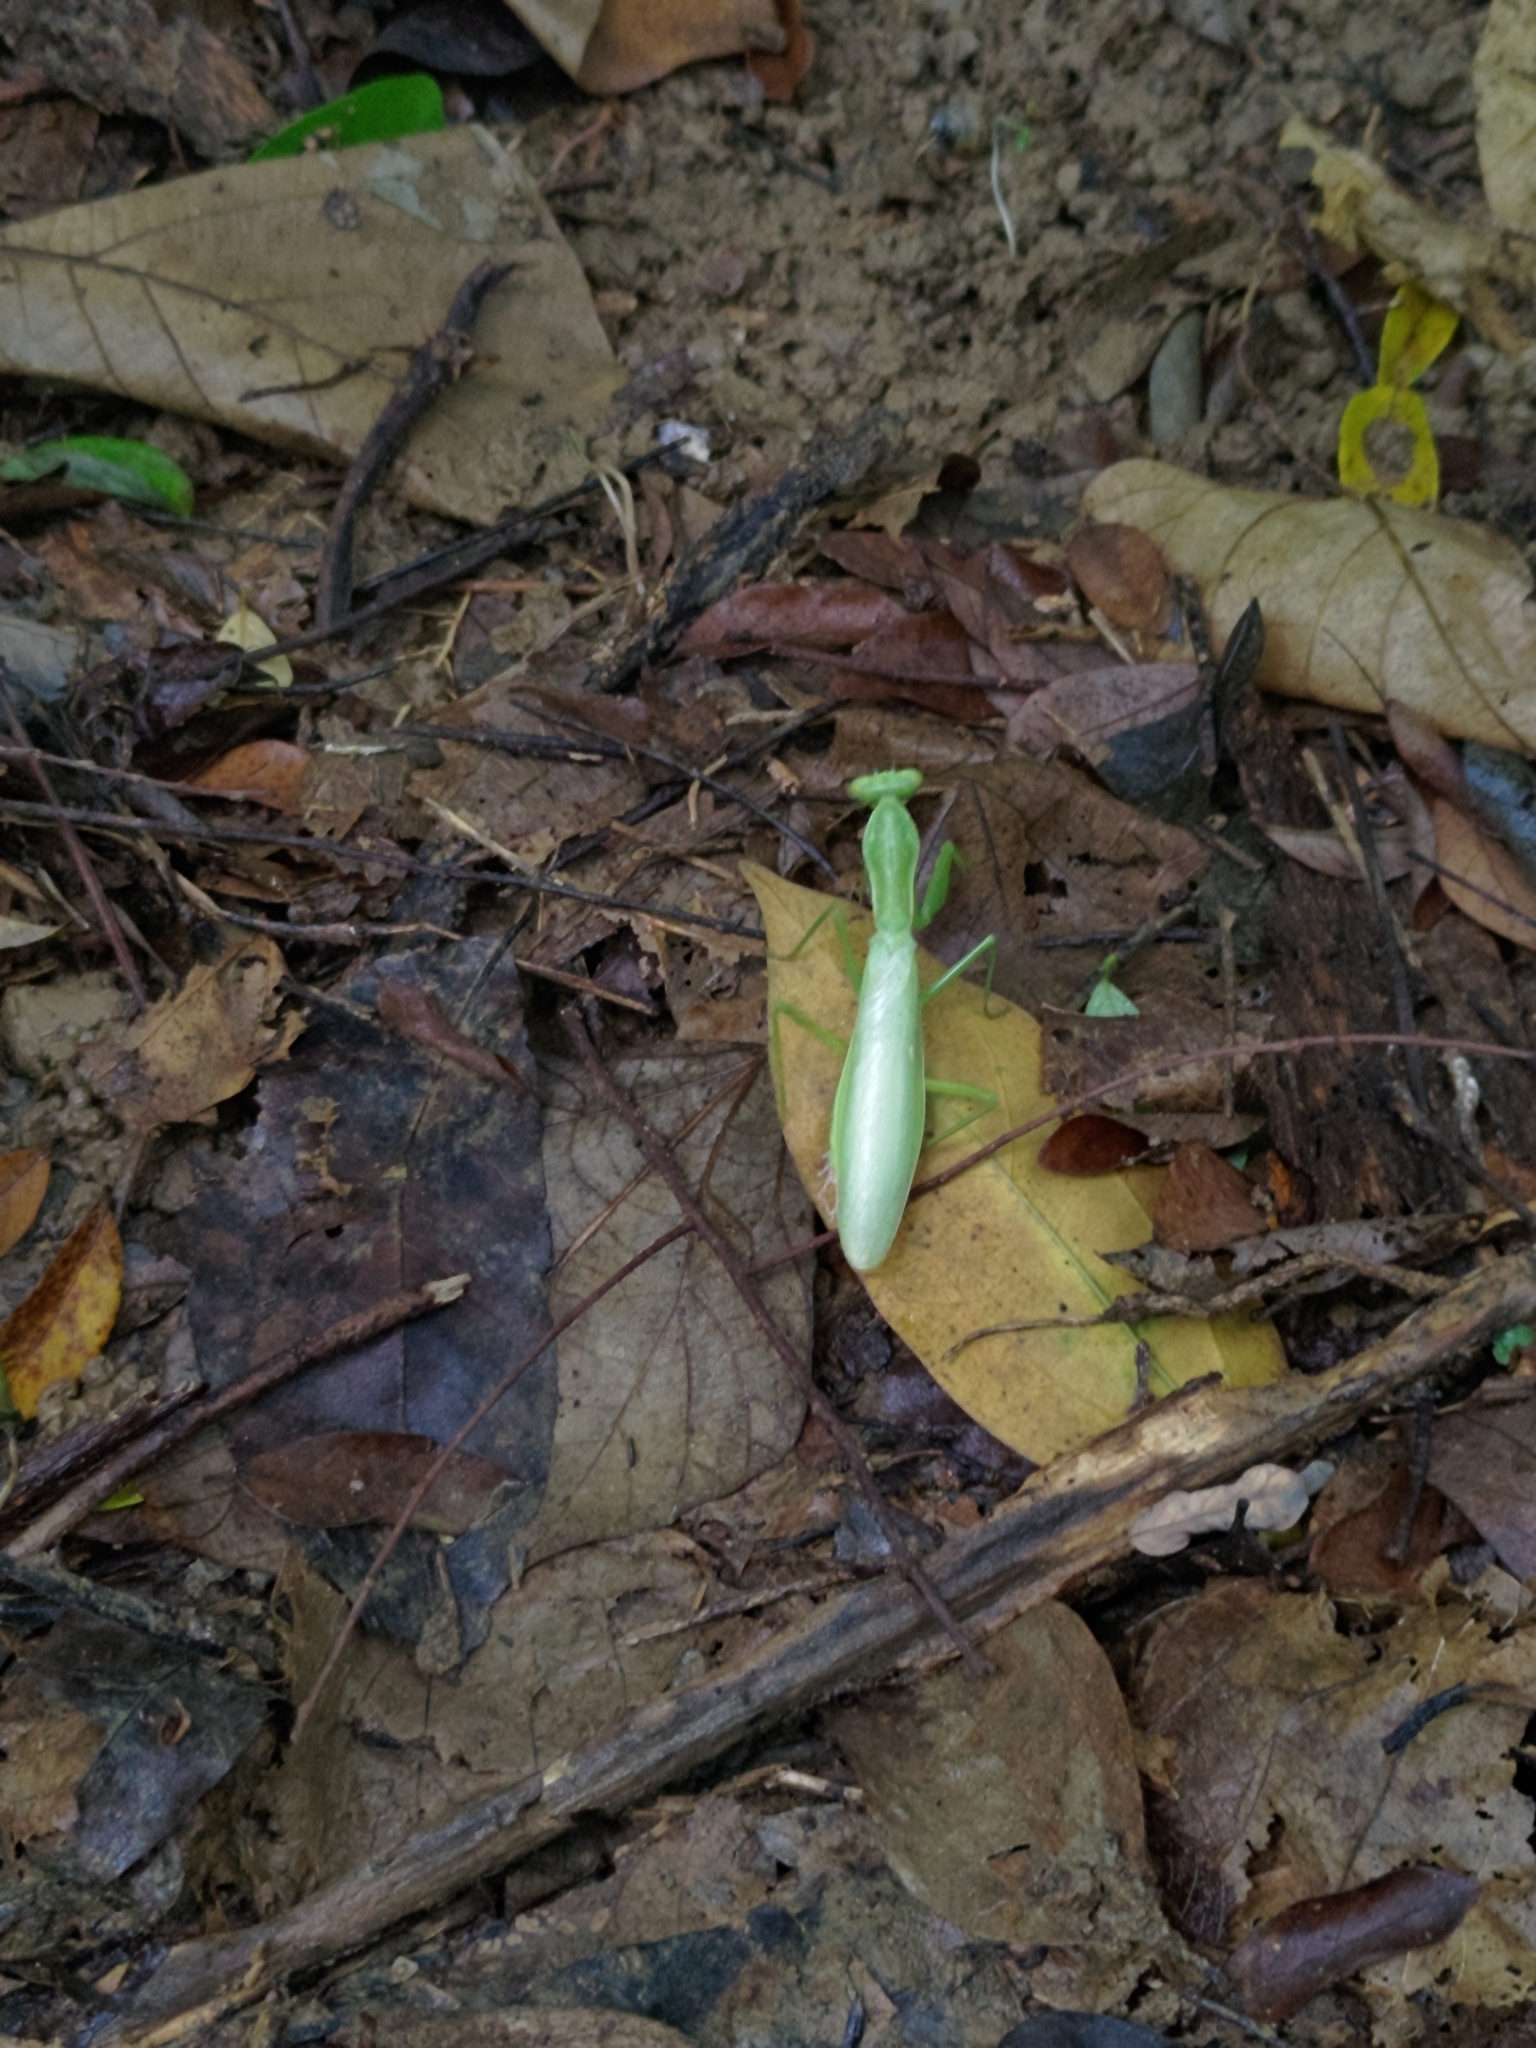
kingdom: Animalia
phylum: Arthropoda
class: Insecta
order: Mantodea
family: Mantidae
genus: Hierodula
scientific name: Hierodula patellifera
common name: Asian mantis
